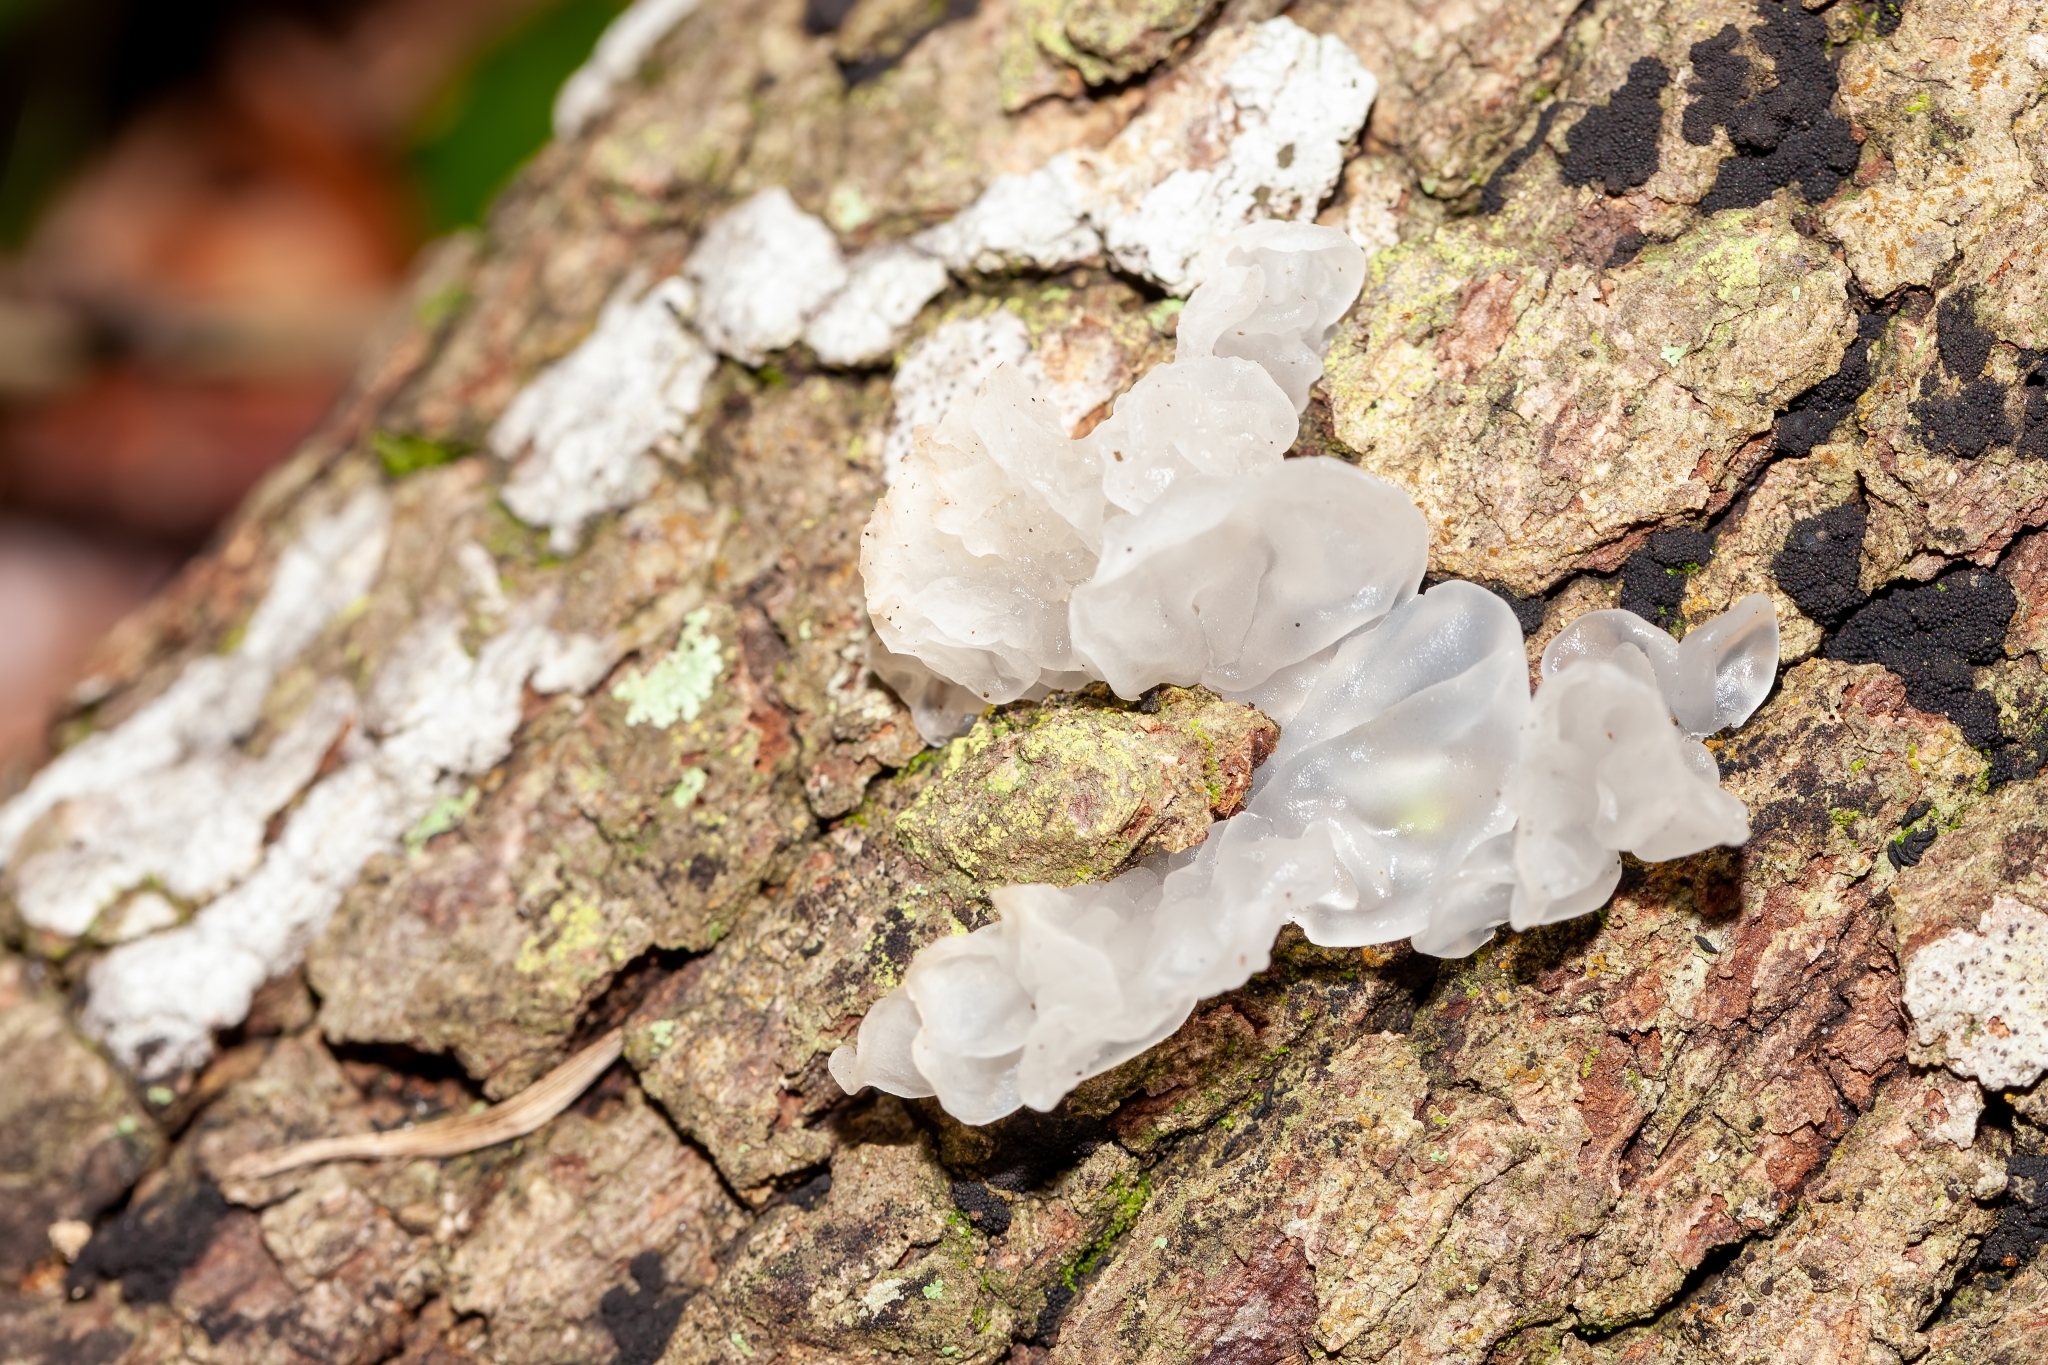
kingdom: Fungi
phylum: Basidiomycota
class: Tremellomycetes
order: Tremellales
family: Tremellaceae
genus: Tremella
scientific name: Tremella fuciformis
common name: Snow fungus
